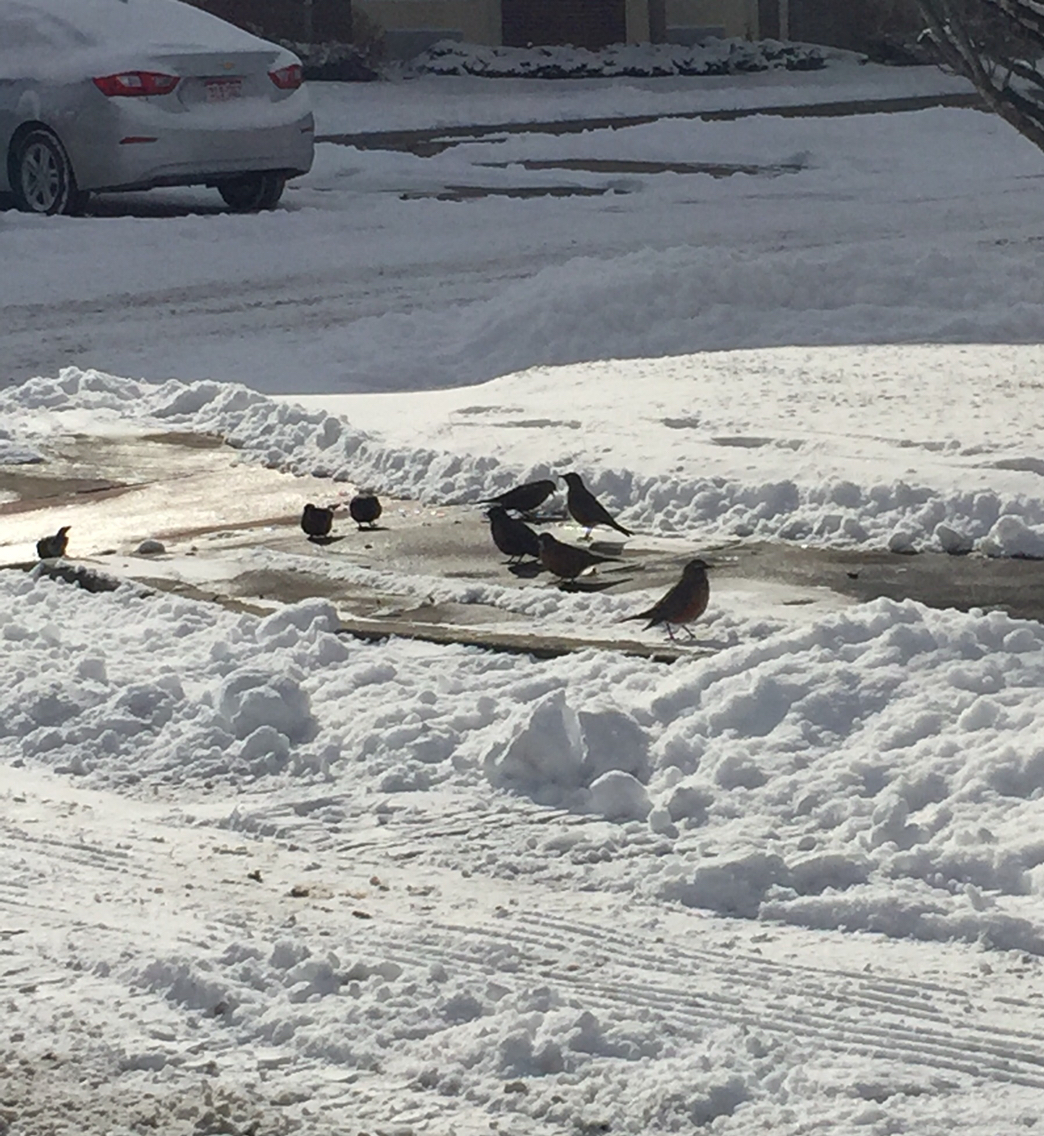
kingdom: Animalia
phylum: Chordata
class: Aves
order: Passeriformes
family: Turdidae
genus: Turdus
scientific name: Turdus migratorius
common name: American robin
